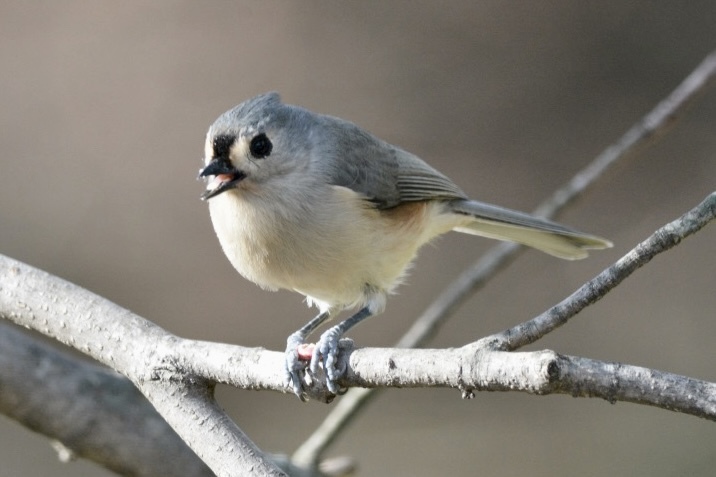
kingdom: Animalia
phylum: Chordata
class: Aves
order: Passeriformes
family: Paridae
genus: Baeolophus
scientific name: Baeolophus bicolor
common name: Tufted titmouse
